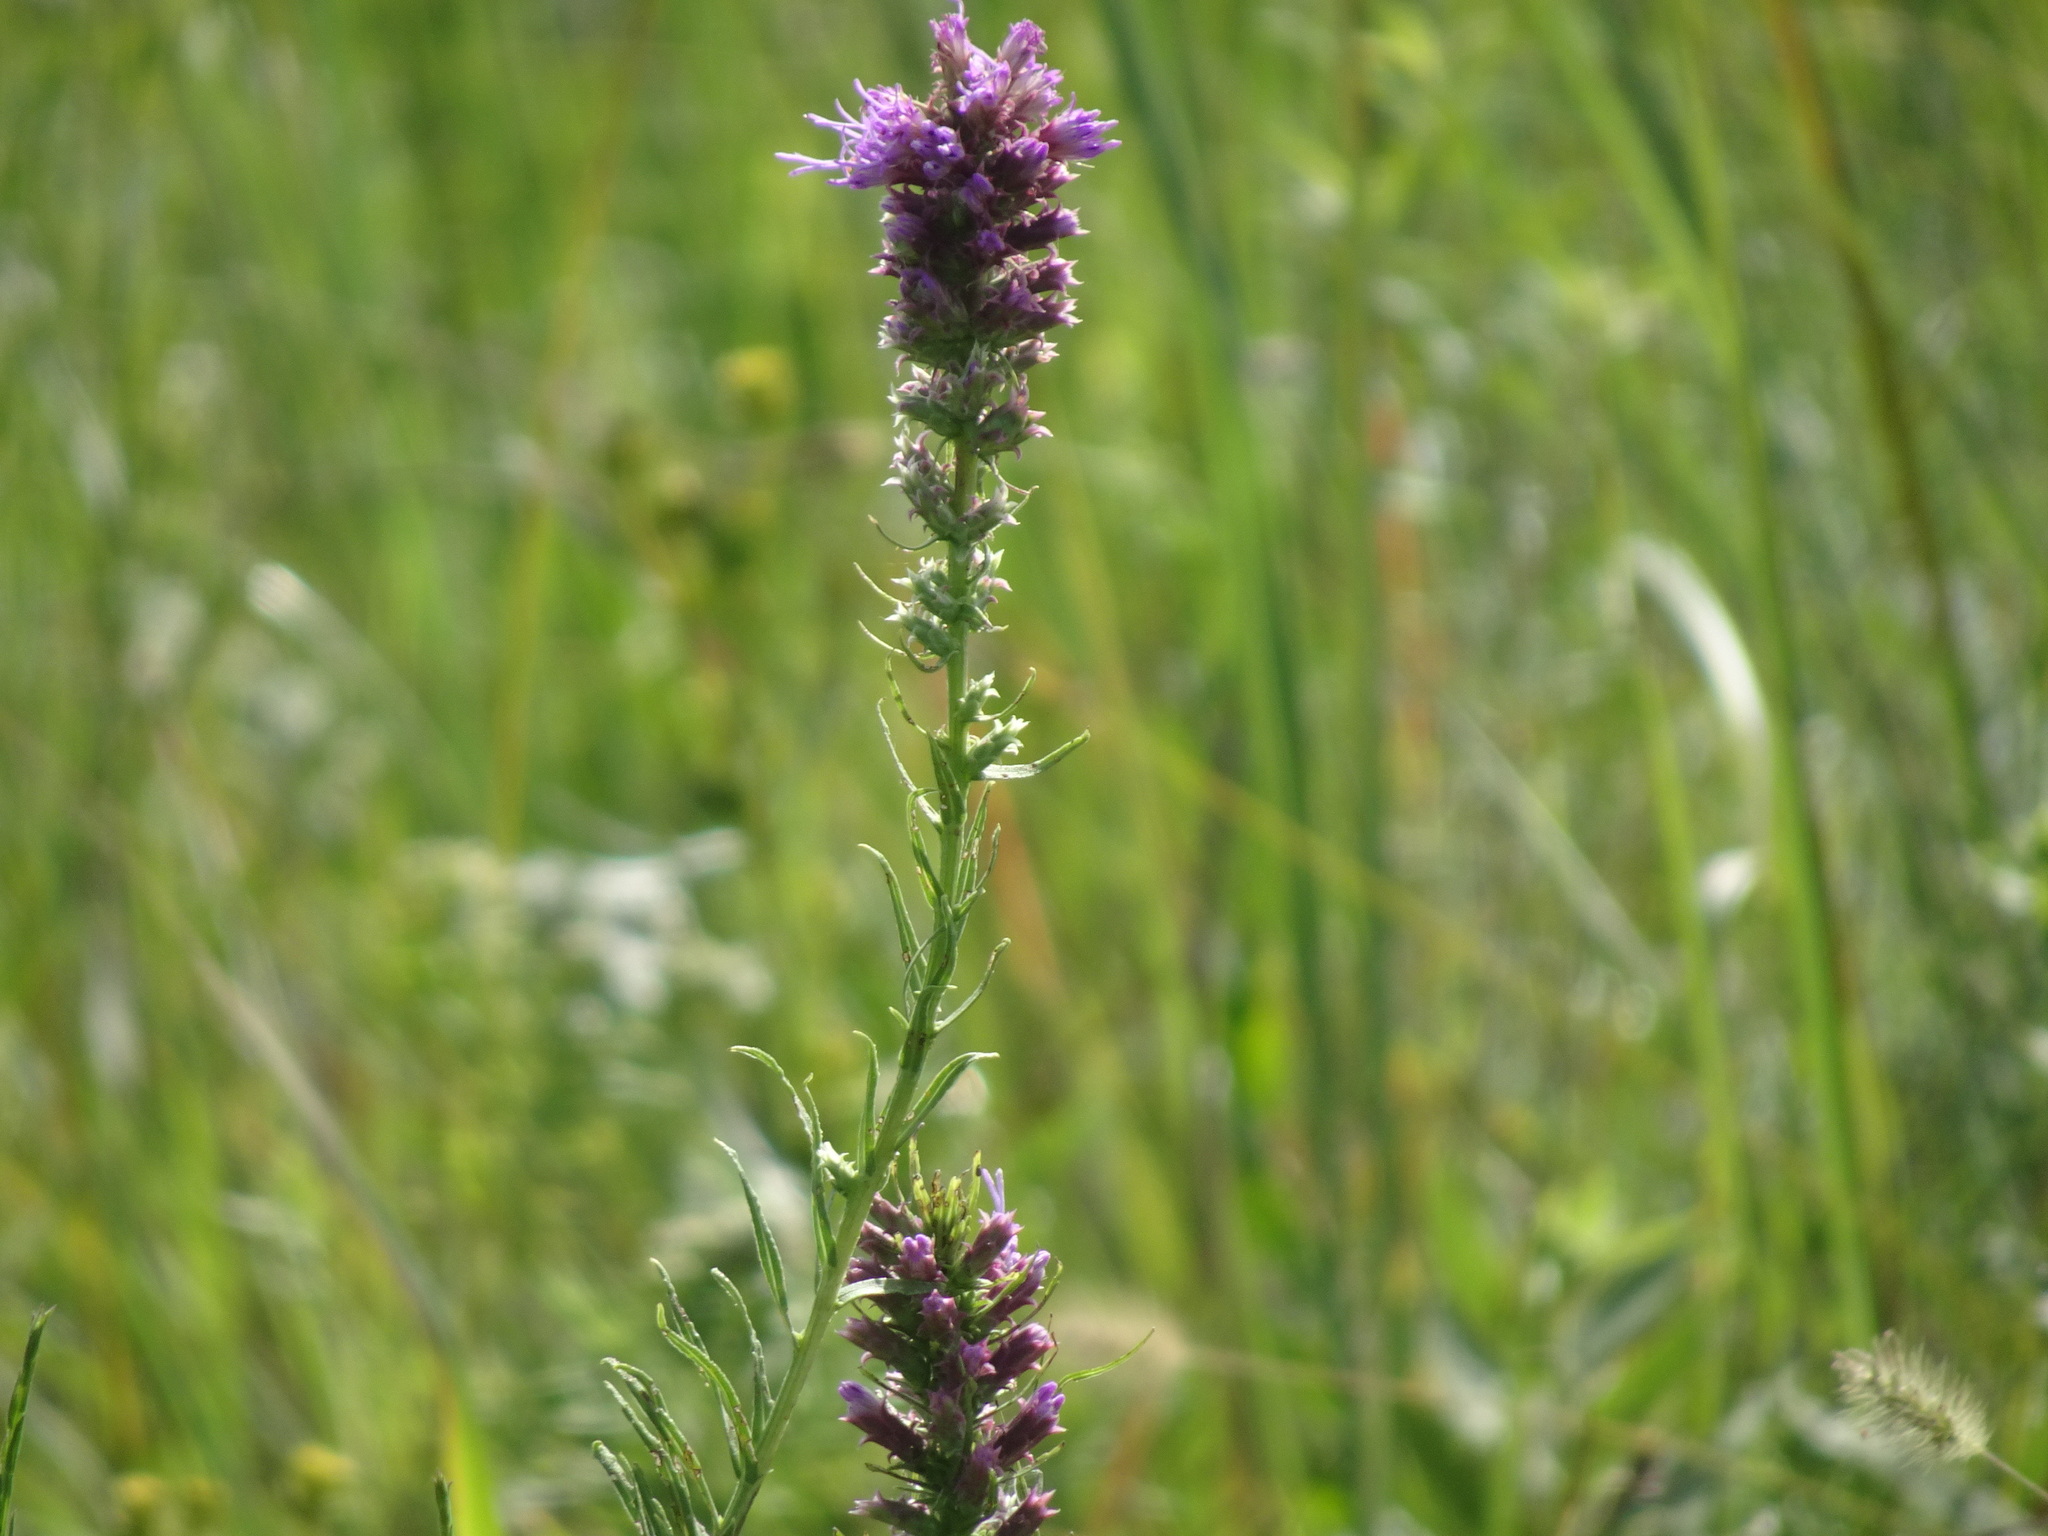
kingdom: Plantae
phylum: Tracheophyta
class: Magnoliopsida
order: Asterales
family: Asteraceae
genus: Liatris
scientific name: Liatris pycnostachya
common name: Cattail gayfeather
